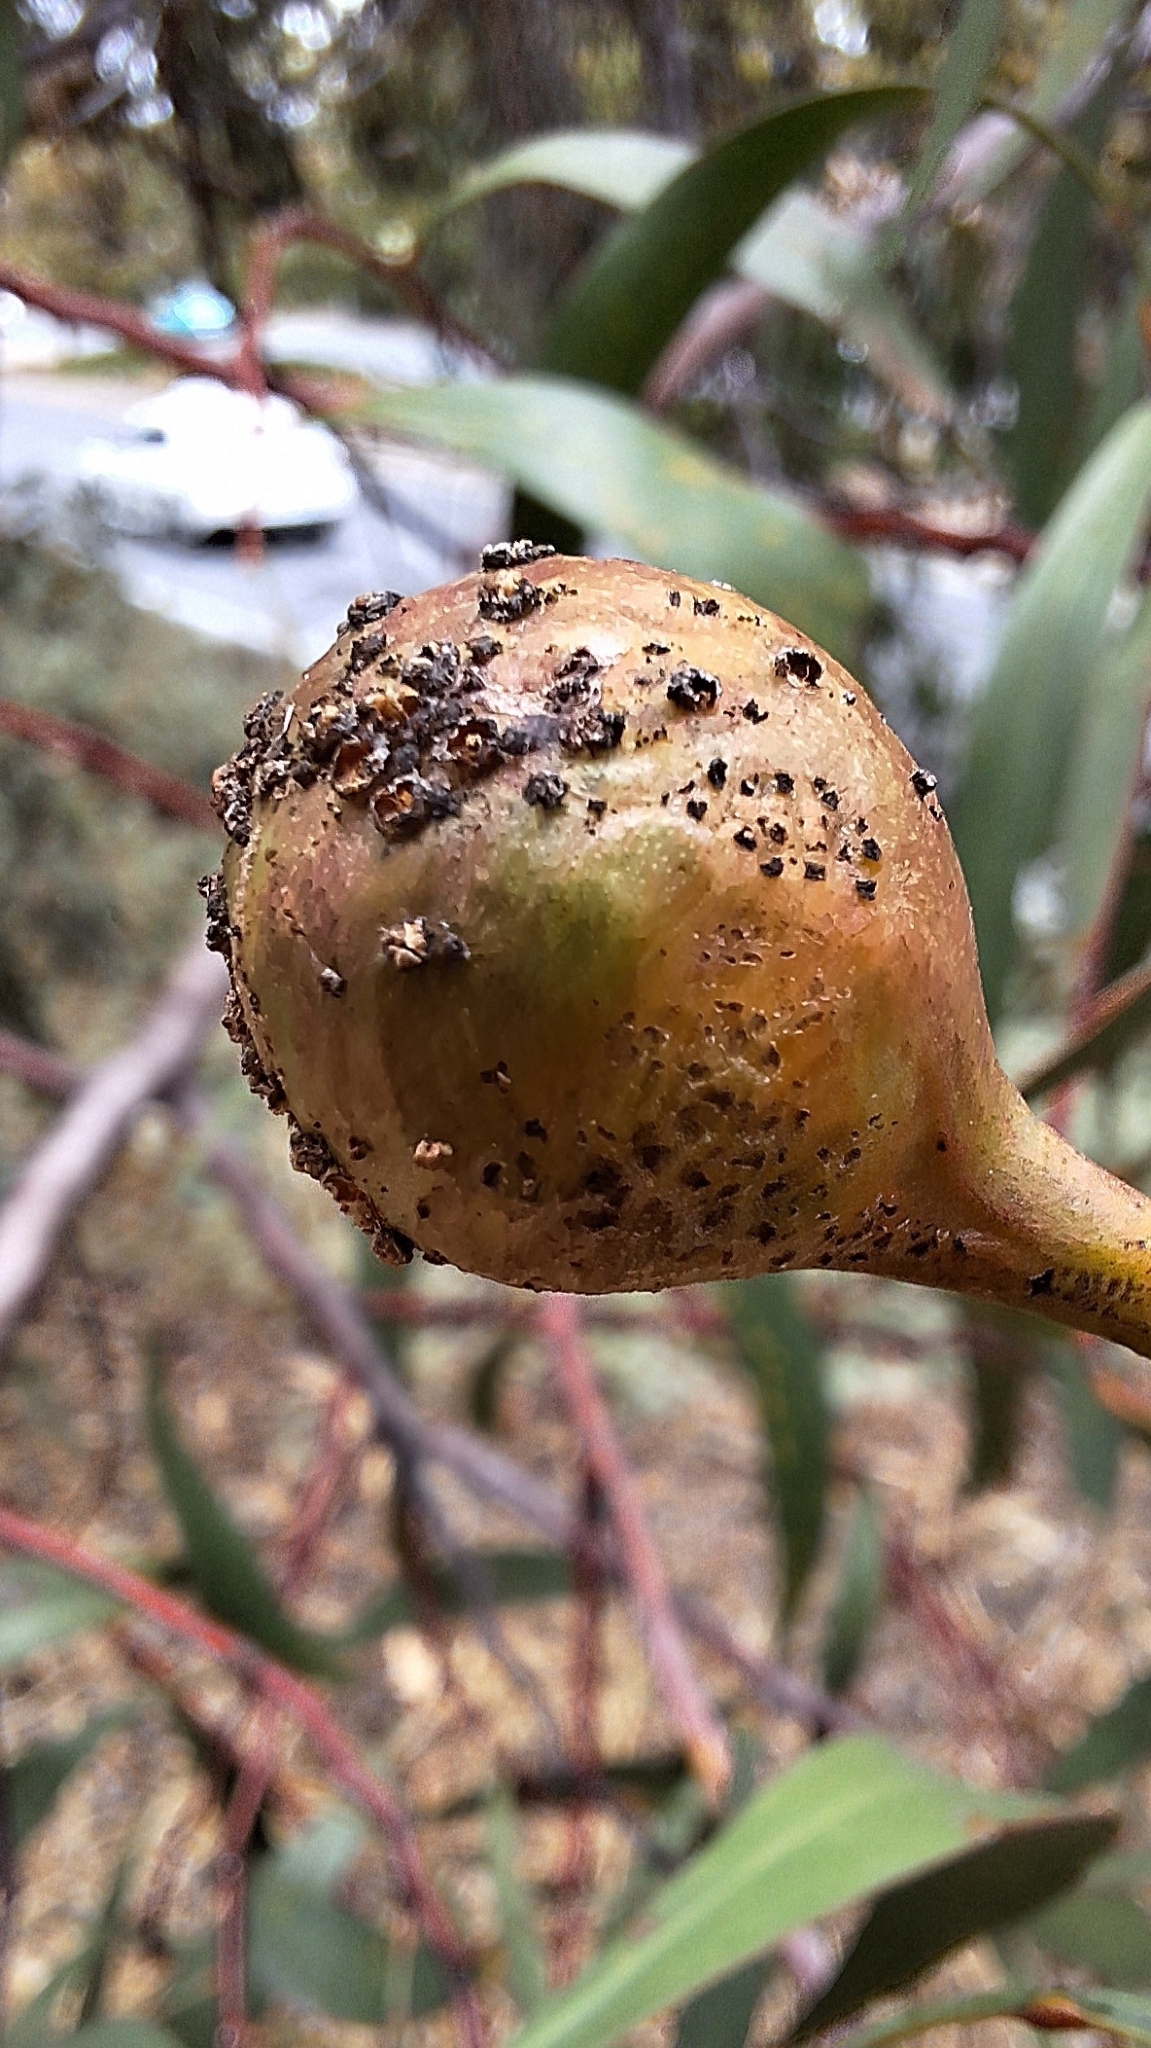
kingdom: Animalia
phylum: Arthropoda
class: Insecta
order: Hymenoptera
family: Pteromalidae
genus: Trichilogaster
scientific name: Trichilogaster signiventris
